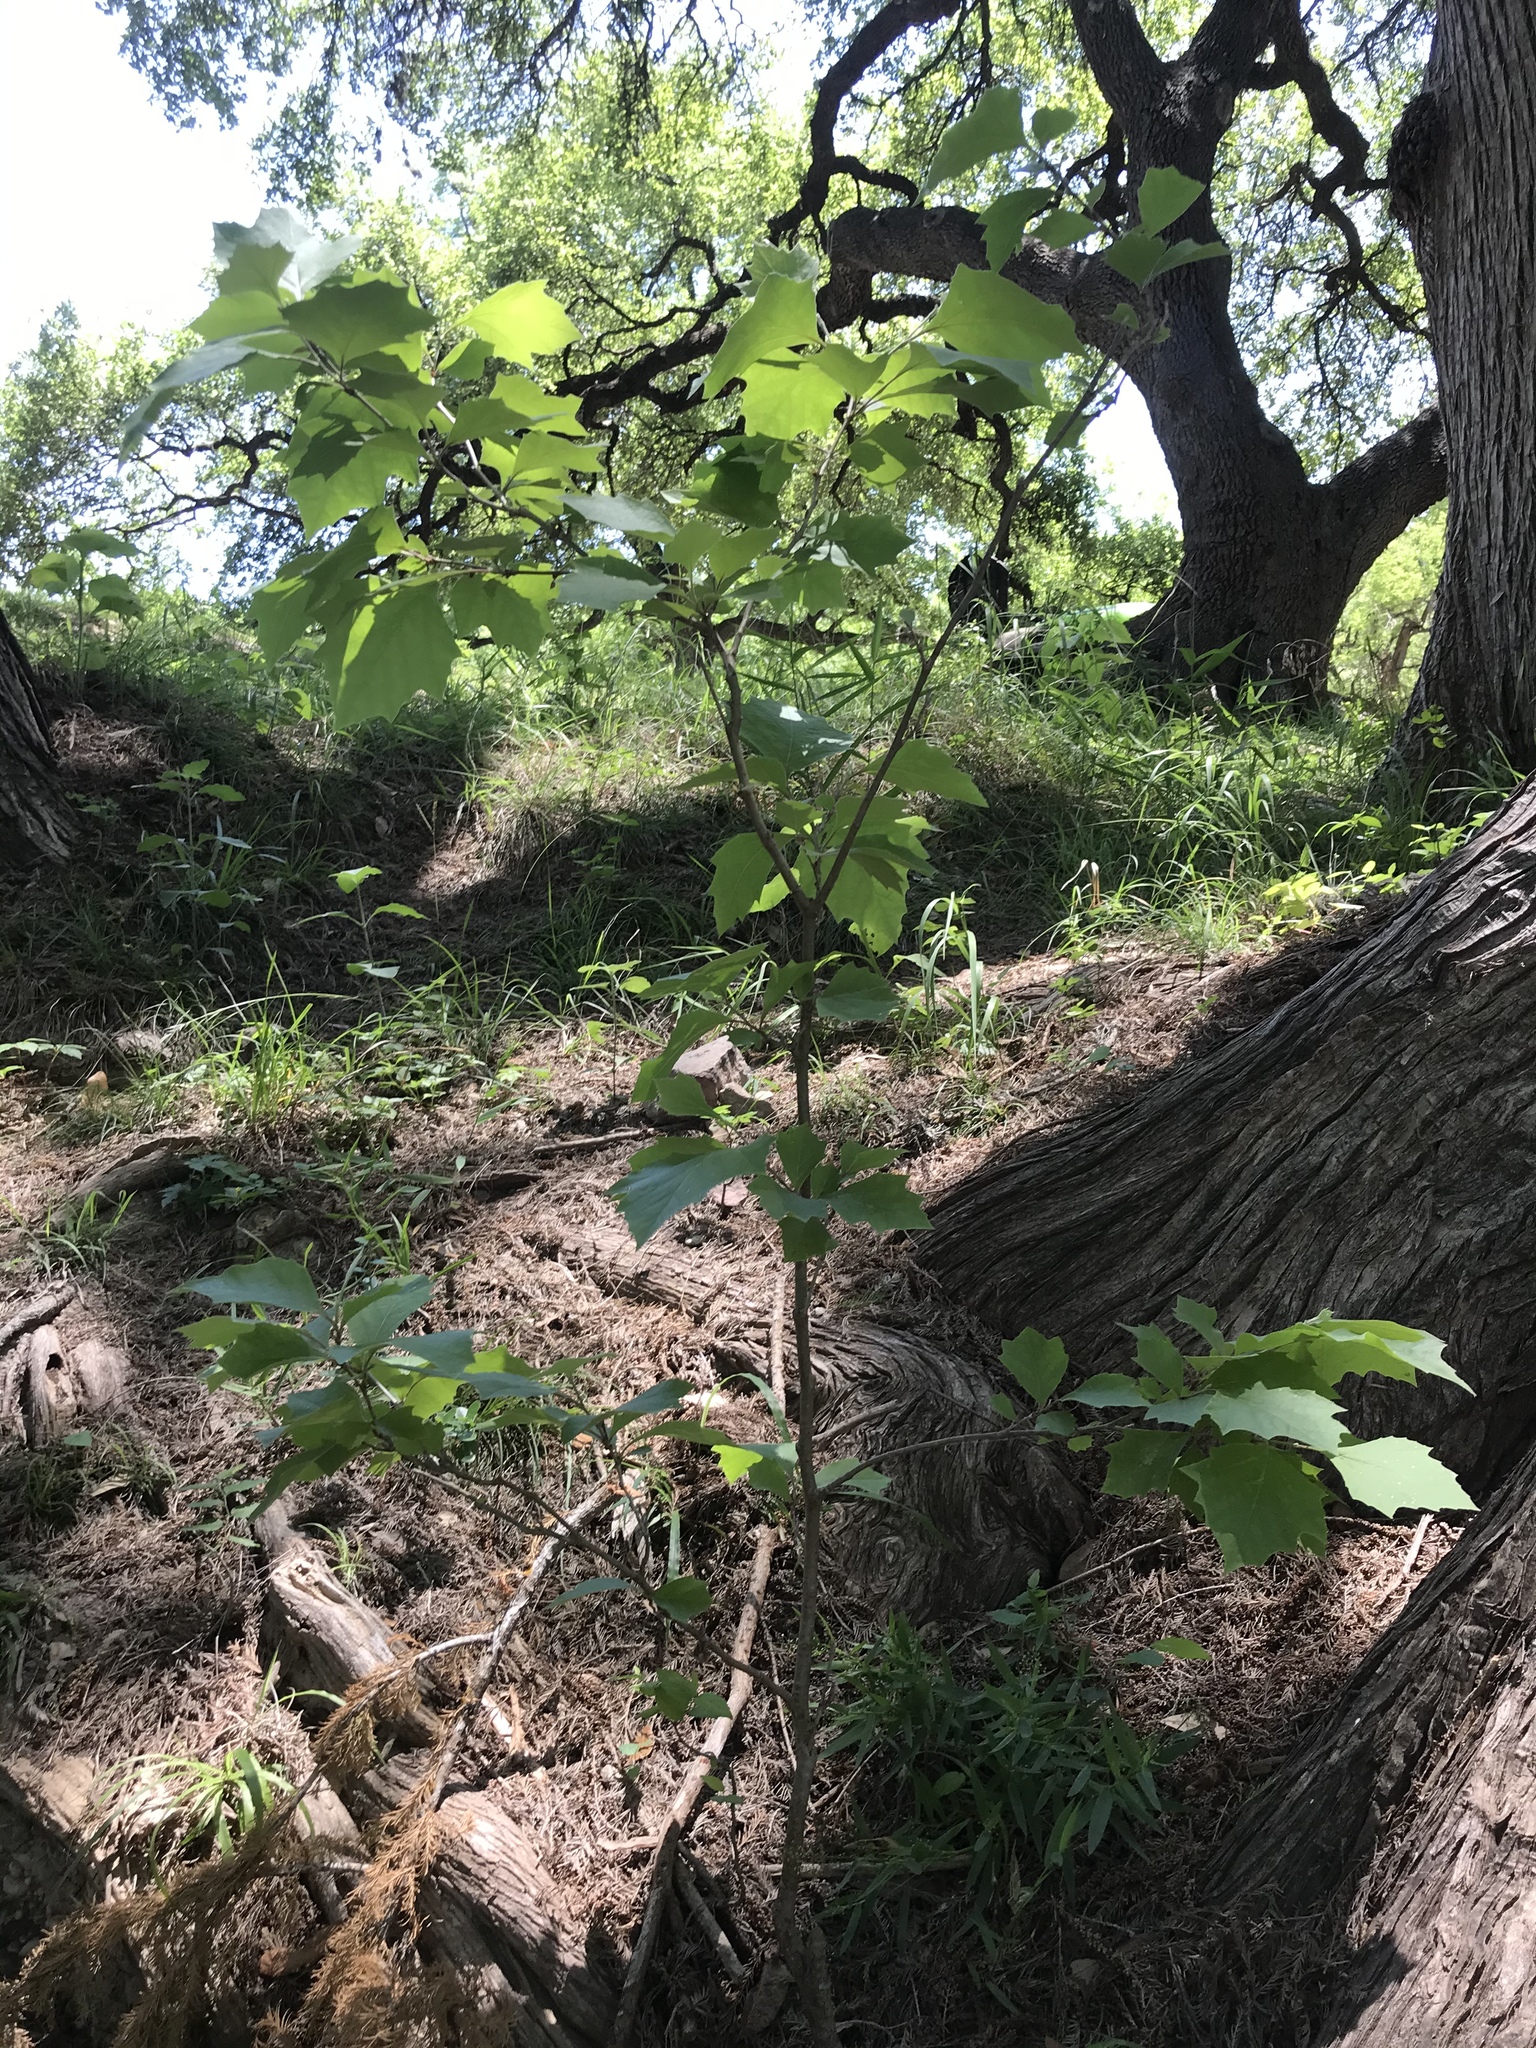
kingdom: Plantae
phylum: Tracheophyta
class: Magnoliopsida
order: Proteales
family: Platanaceae
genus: Platanus
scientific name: Platanus occidentalis
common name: American sycamore
